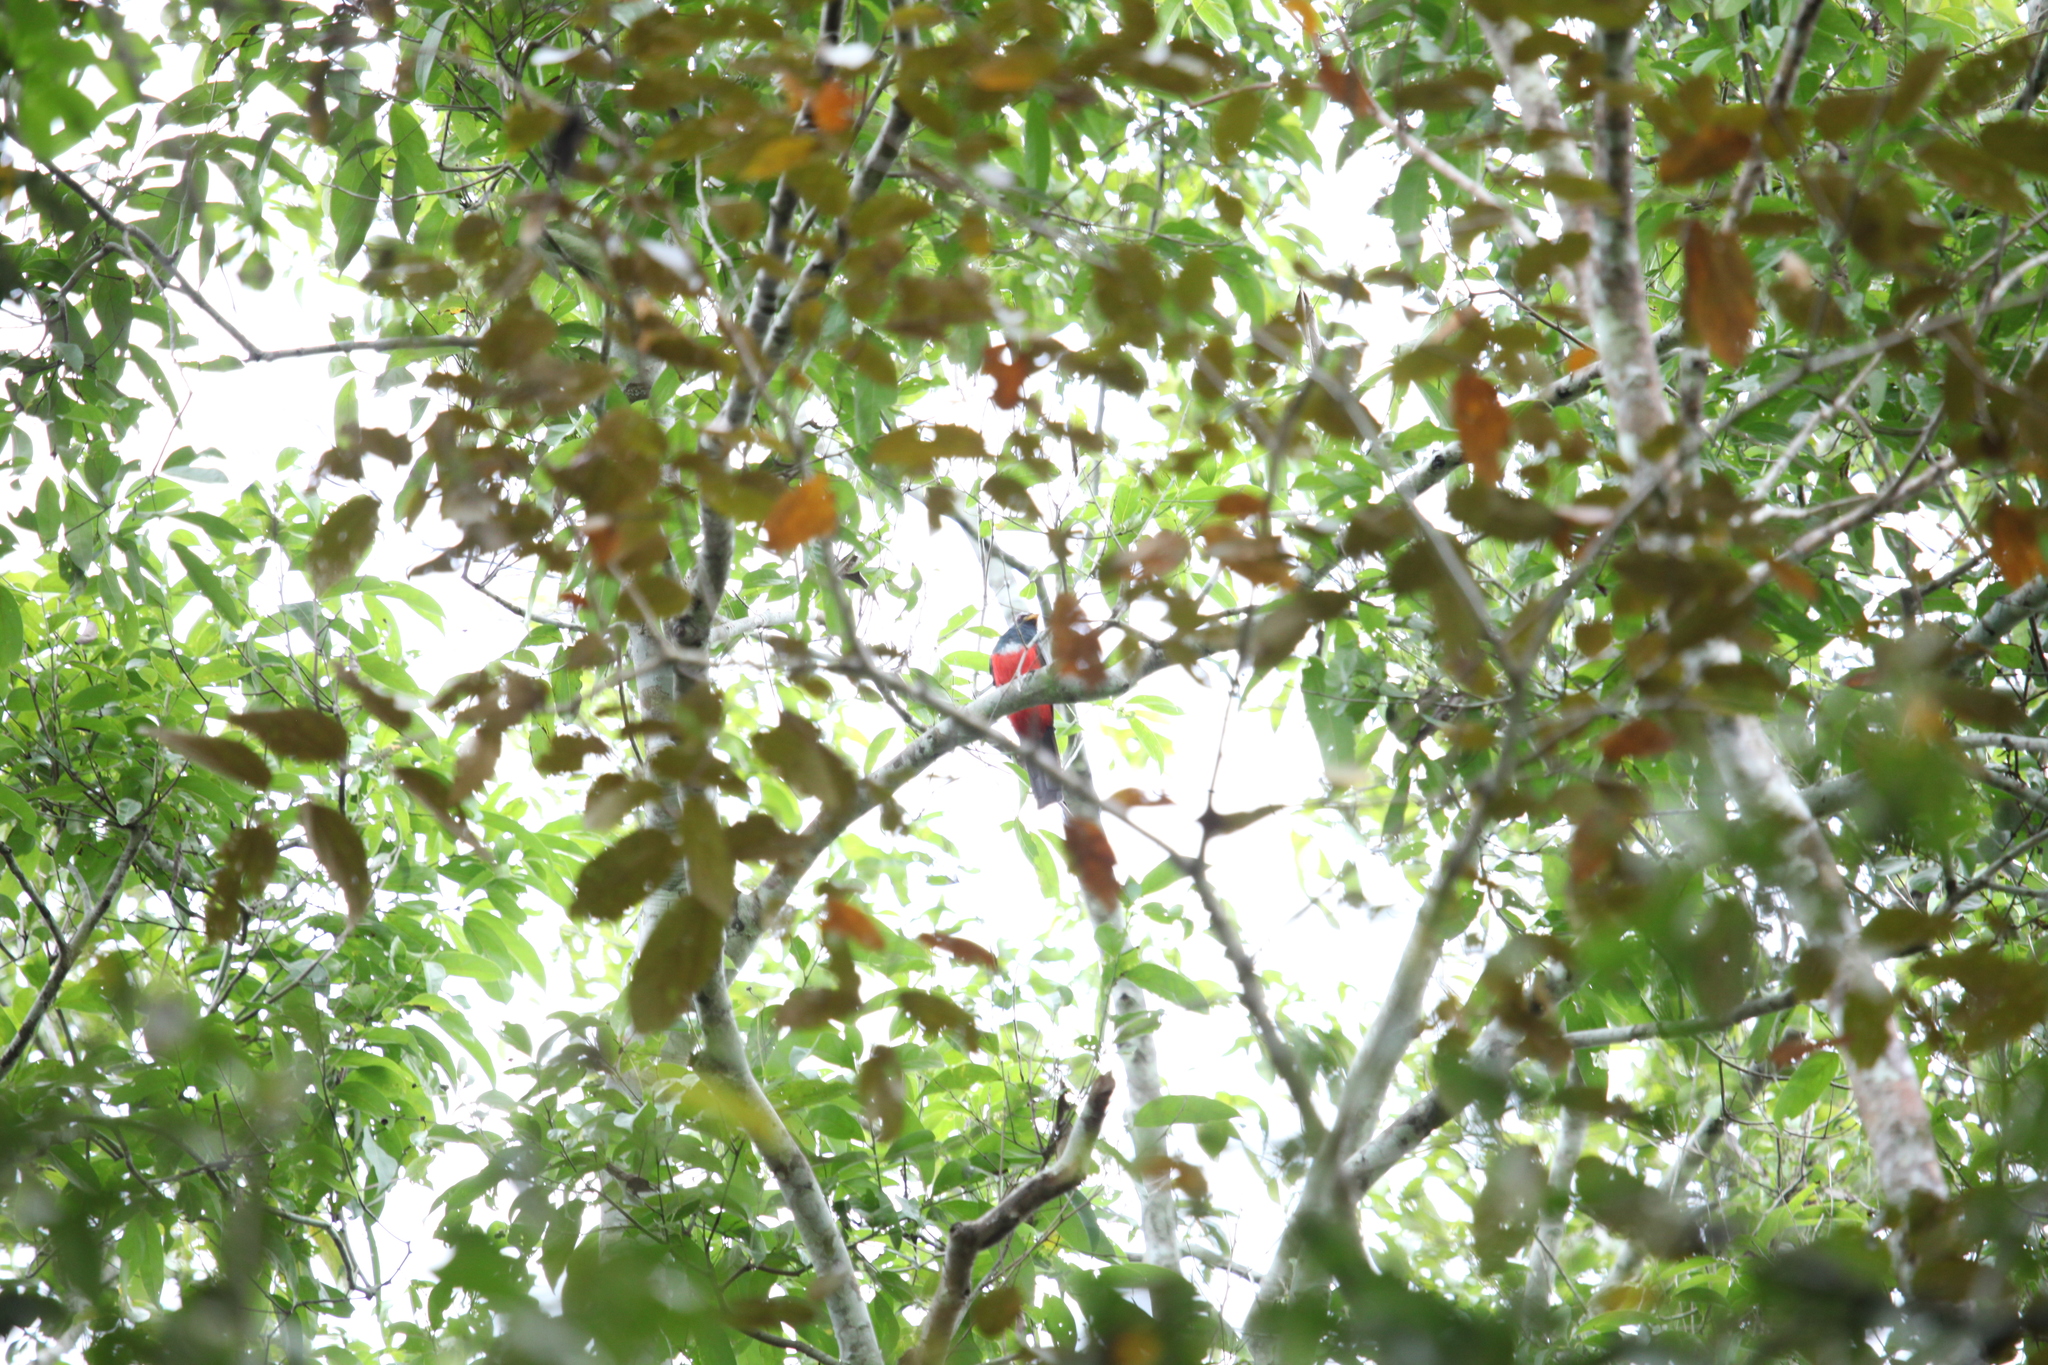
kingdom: Animalia
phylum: Chordata
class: Aves
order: Trogoniformes
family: Trogonidae
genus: Trogon
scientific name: Trogon melanurus
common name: Black-tailed trogon
